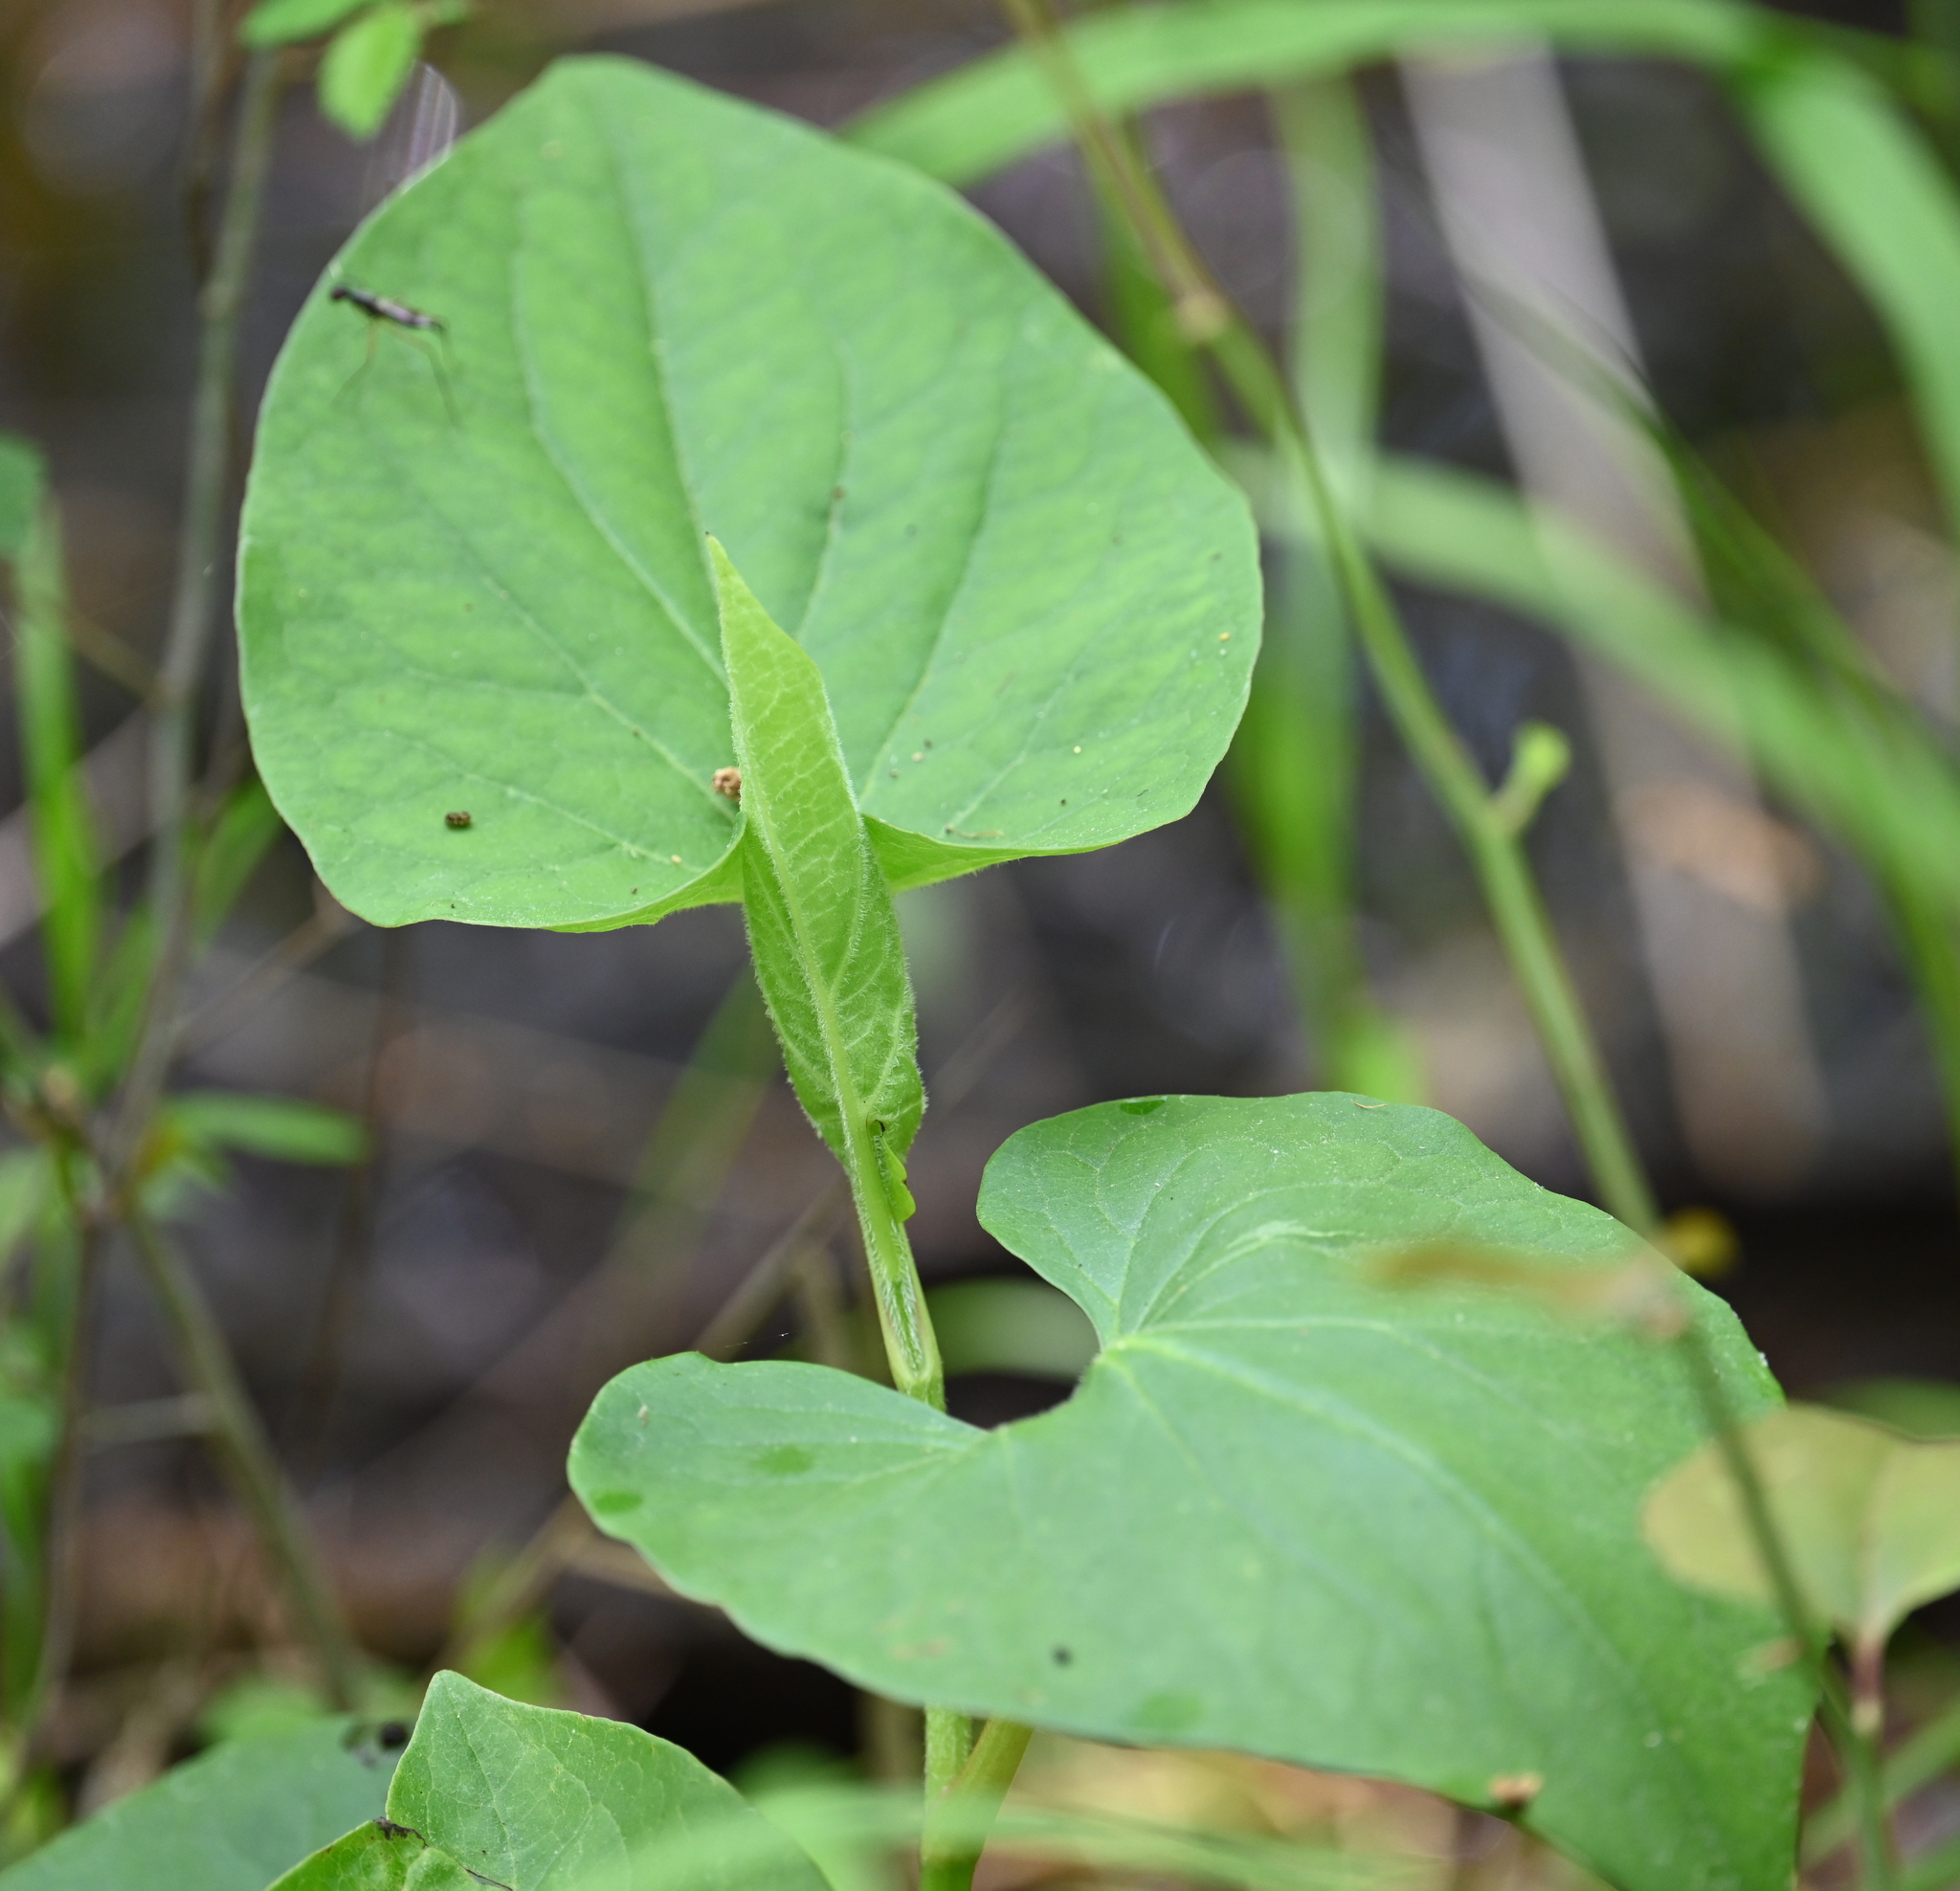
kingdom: Plantae
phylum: Tracheophyta
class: Magnoliopsida
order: Piperales
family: Saururaceae
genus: Saururus
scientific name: Saururus cernuus
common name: Lizard's-tail
